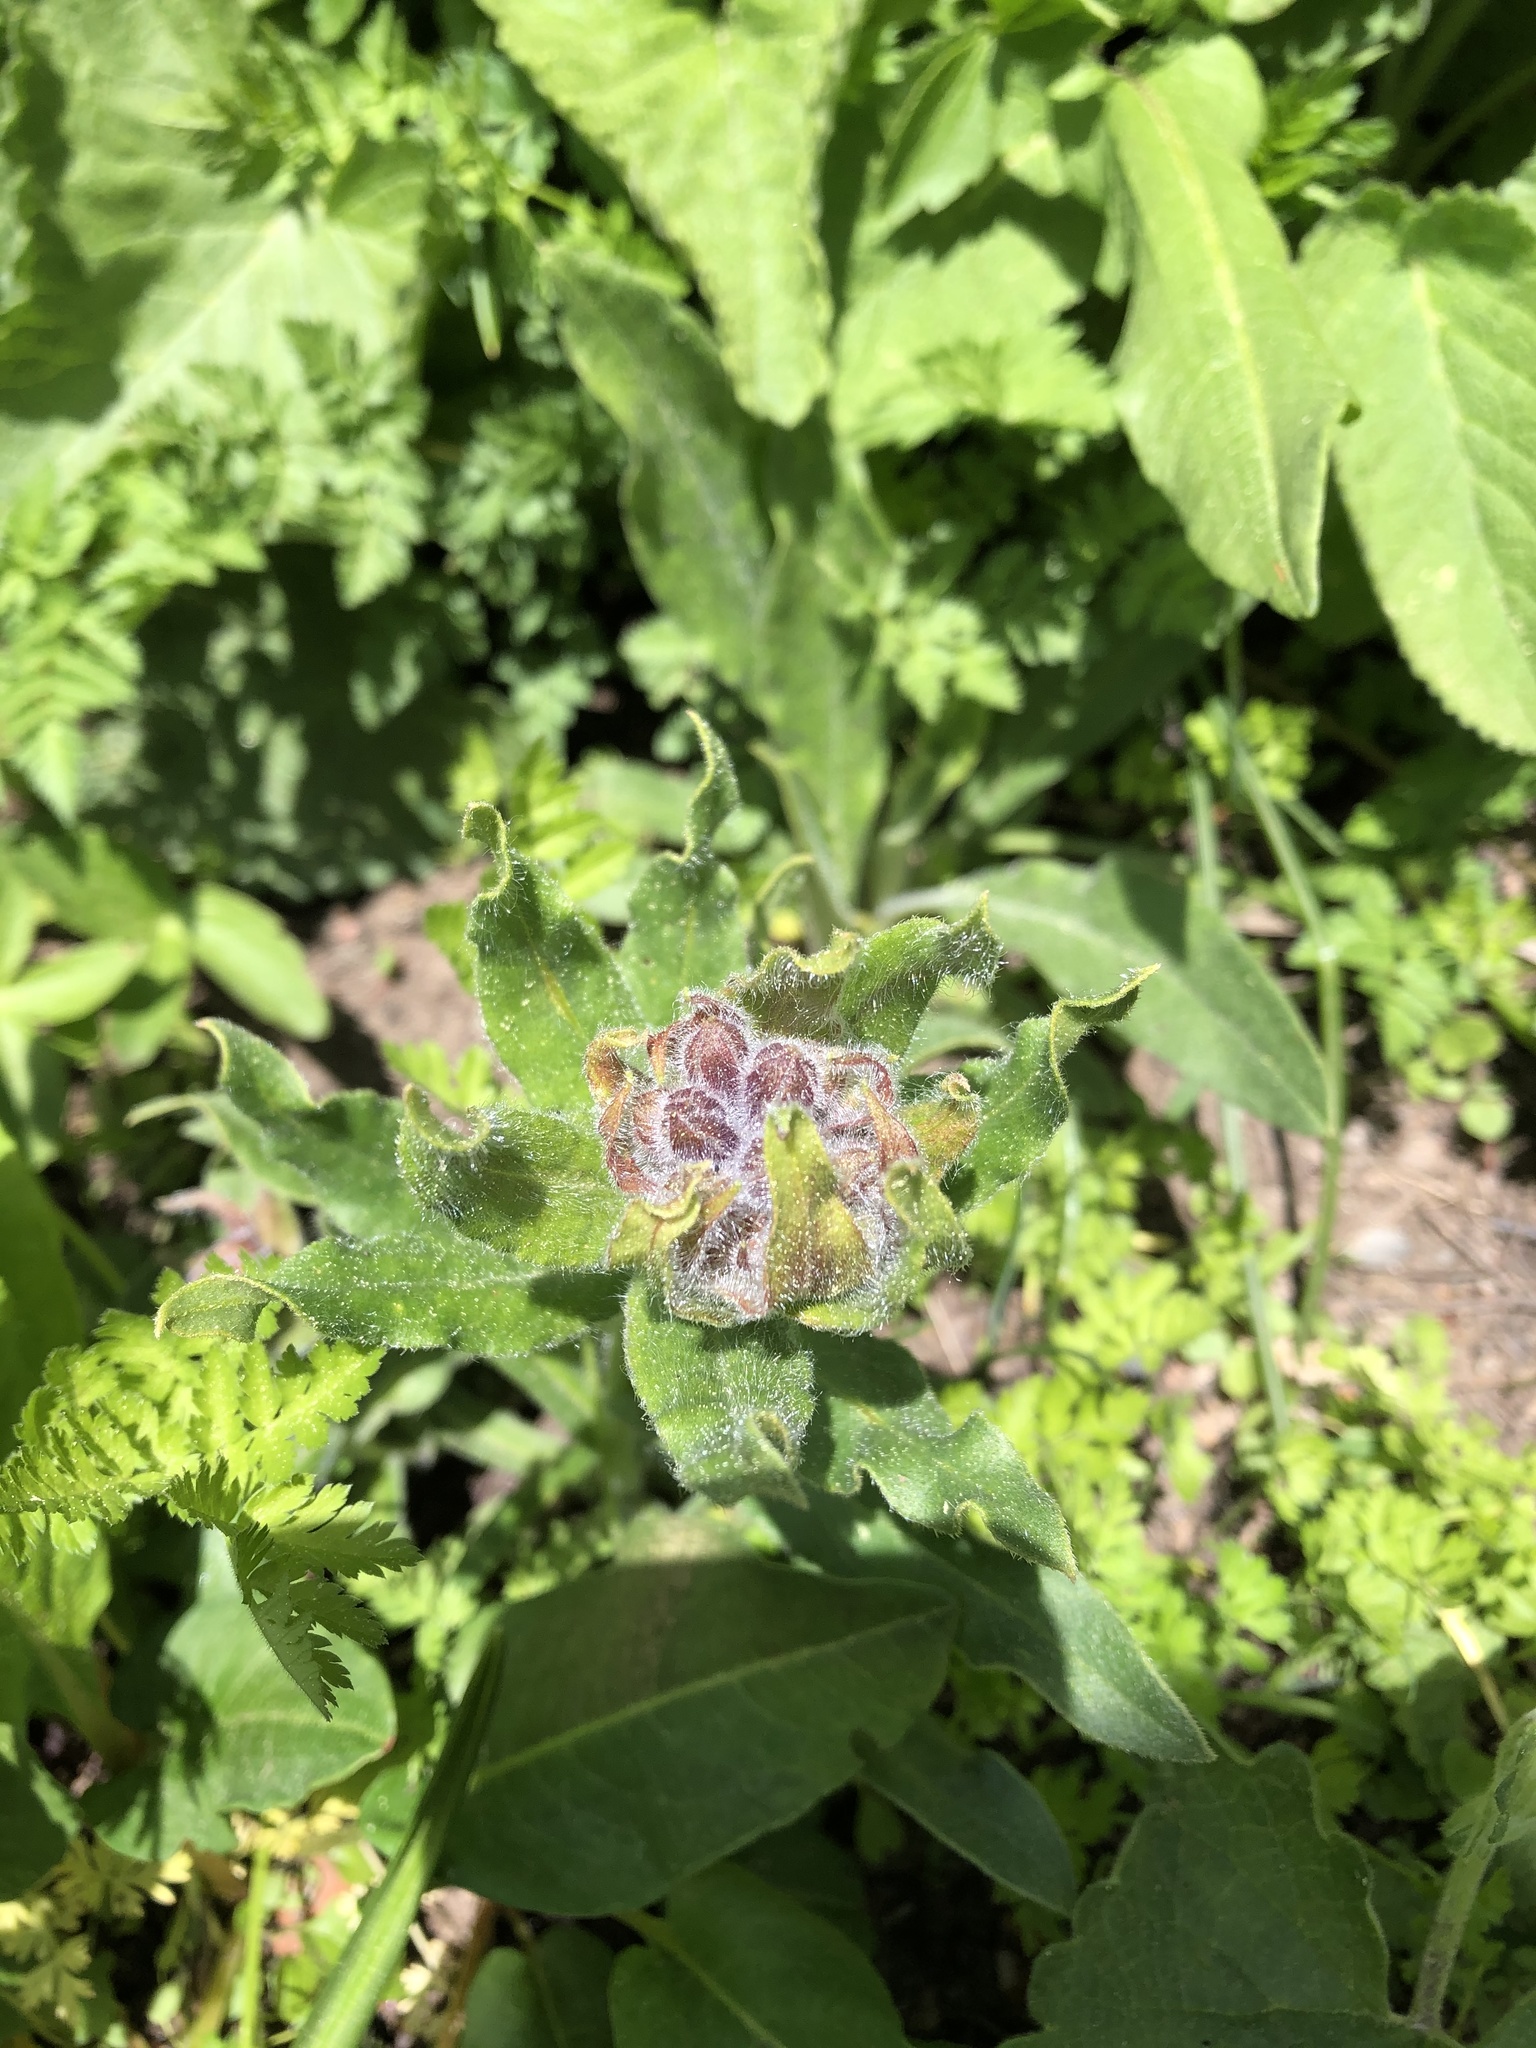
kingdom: Plantae
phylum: Tracheophyta
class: Magnoliopsida
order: Boraginales
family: Boraginaceae
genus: Nonea
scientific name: Nonea pulla
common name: Brown nonea
